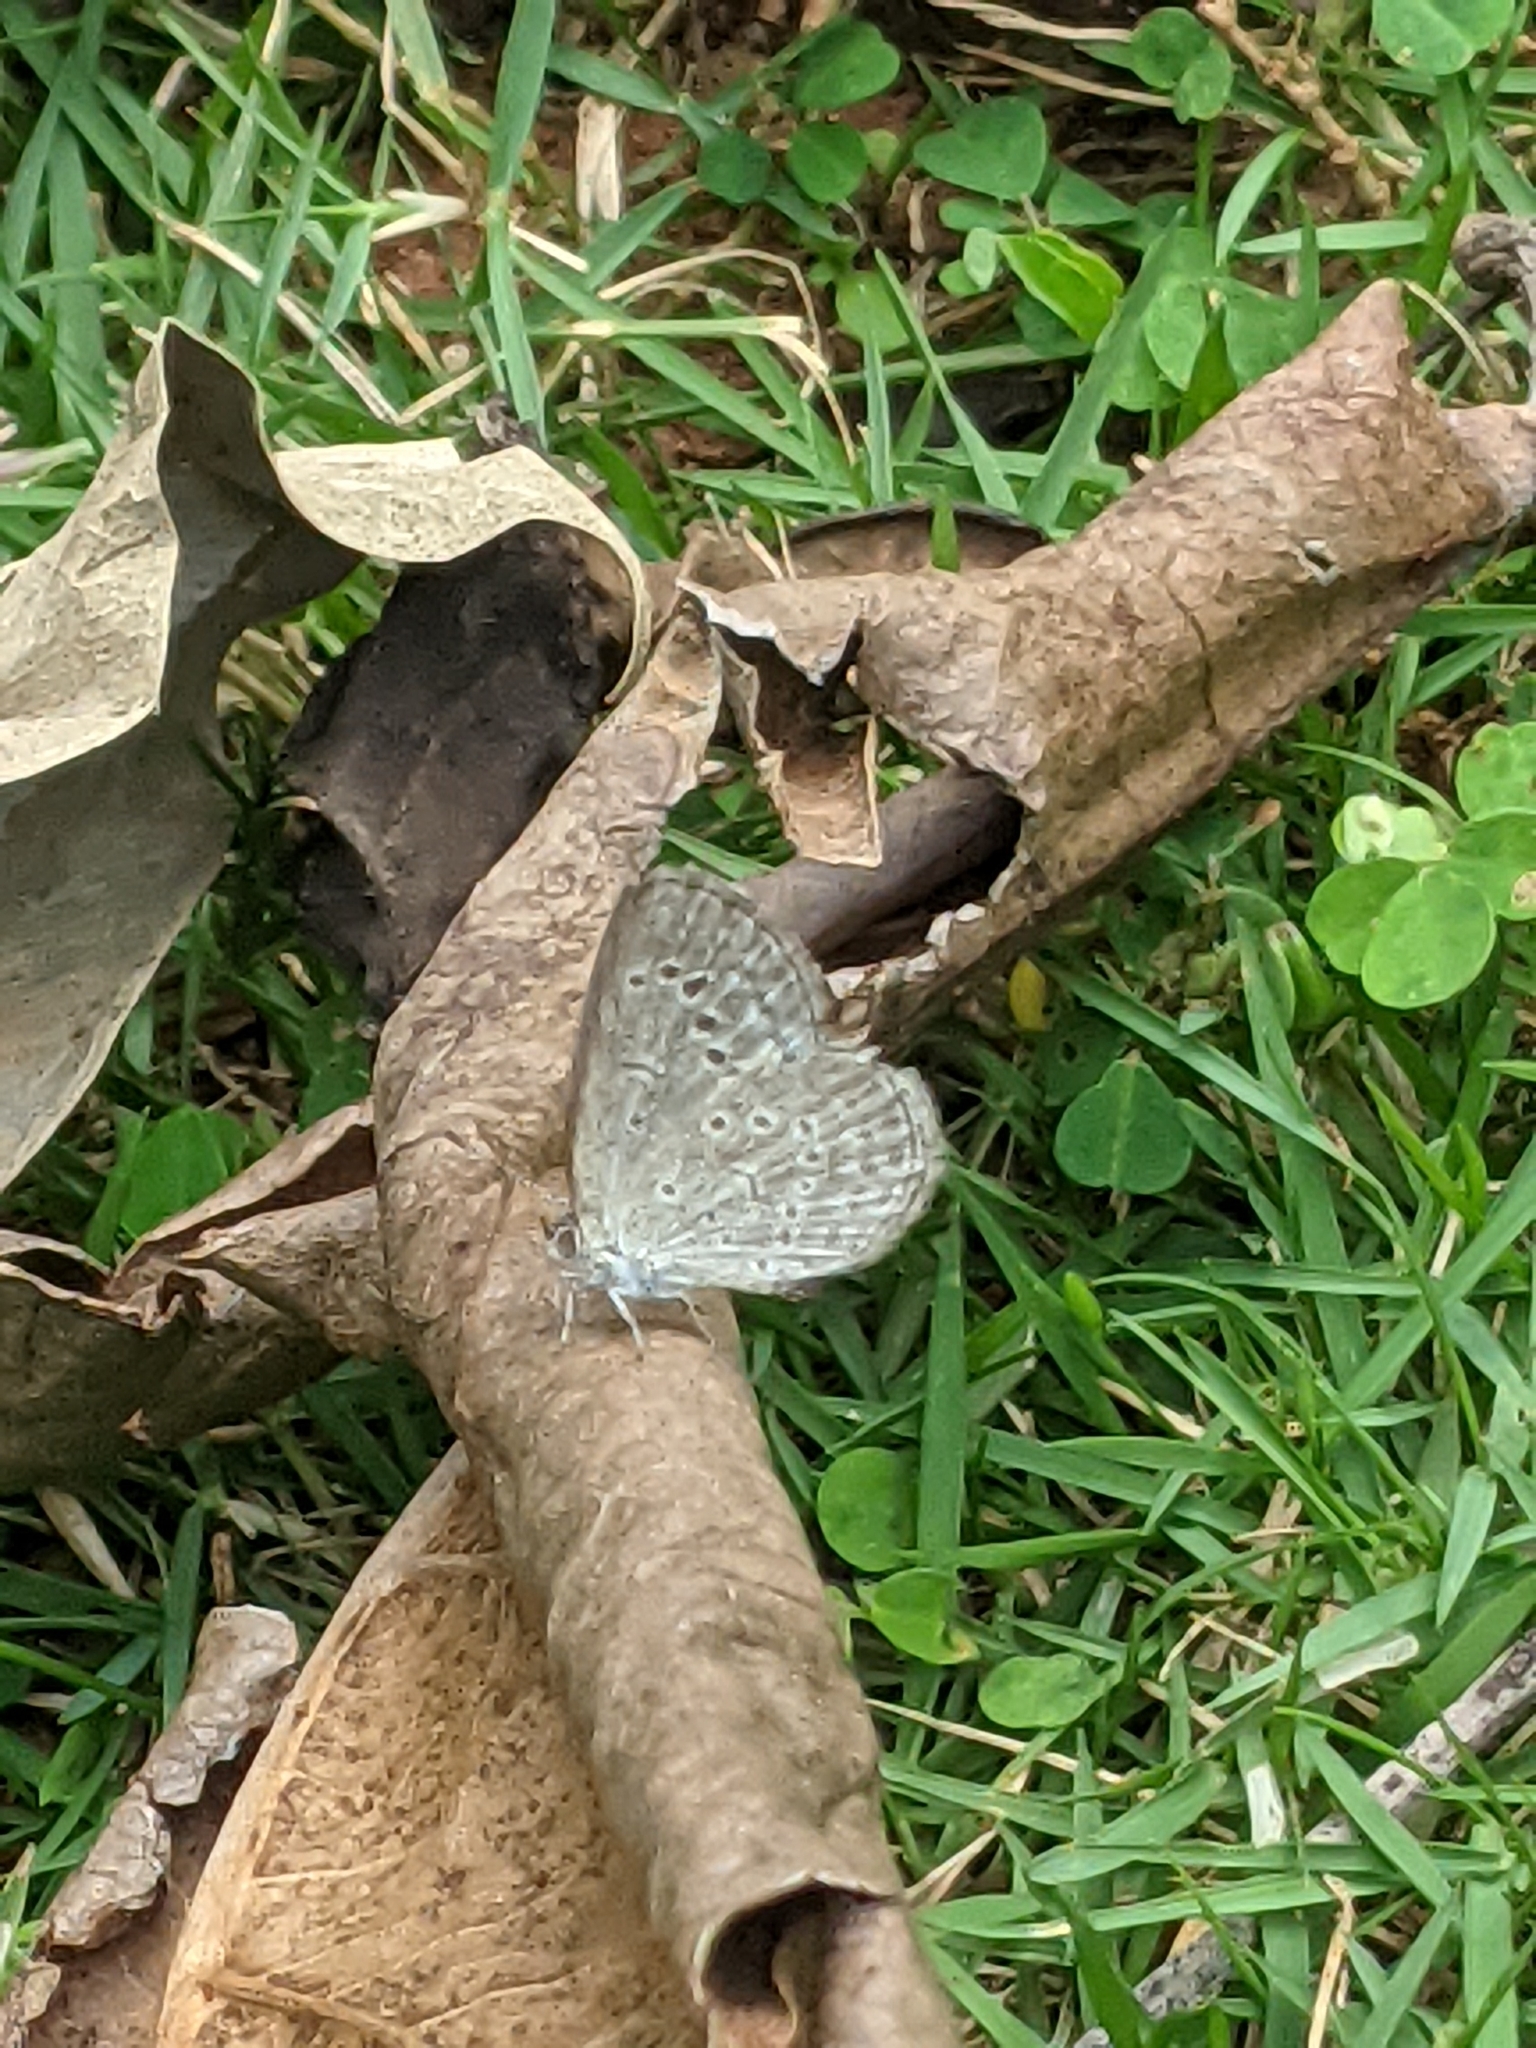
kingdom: Animalia
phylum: Arthropoda
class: Insecta
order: Lepidoptera
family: Lycaenidae
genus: Pseudozizeeria
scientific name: Pseudozizeeria maha
